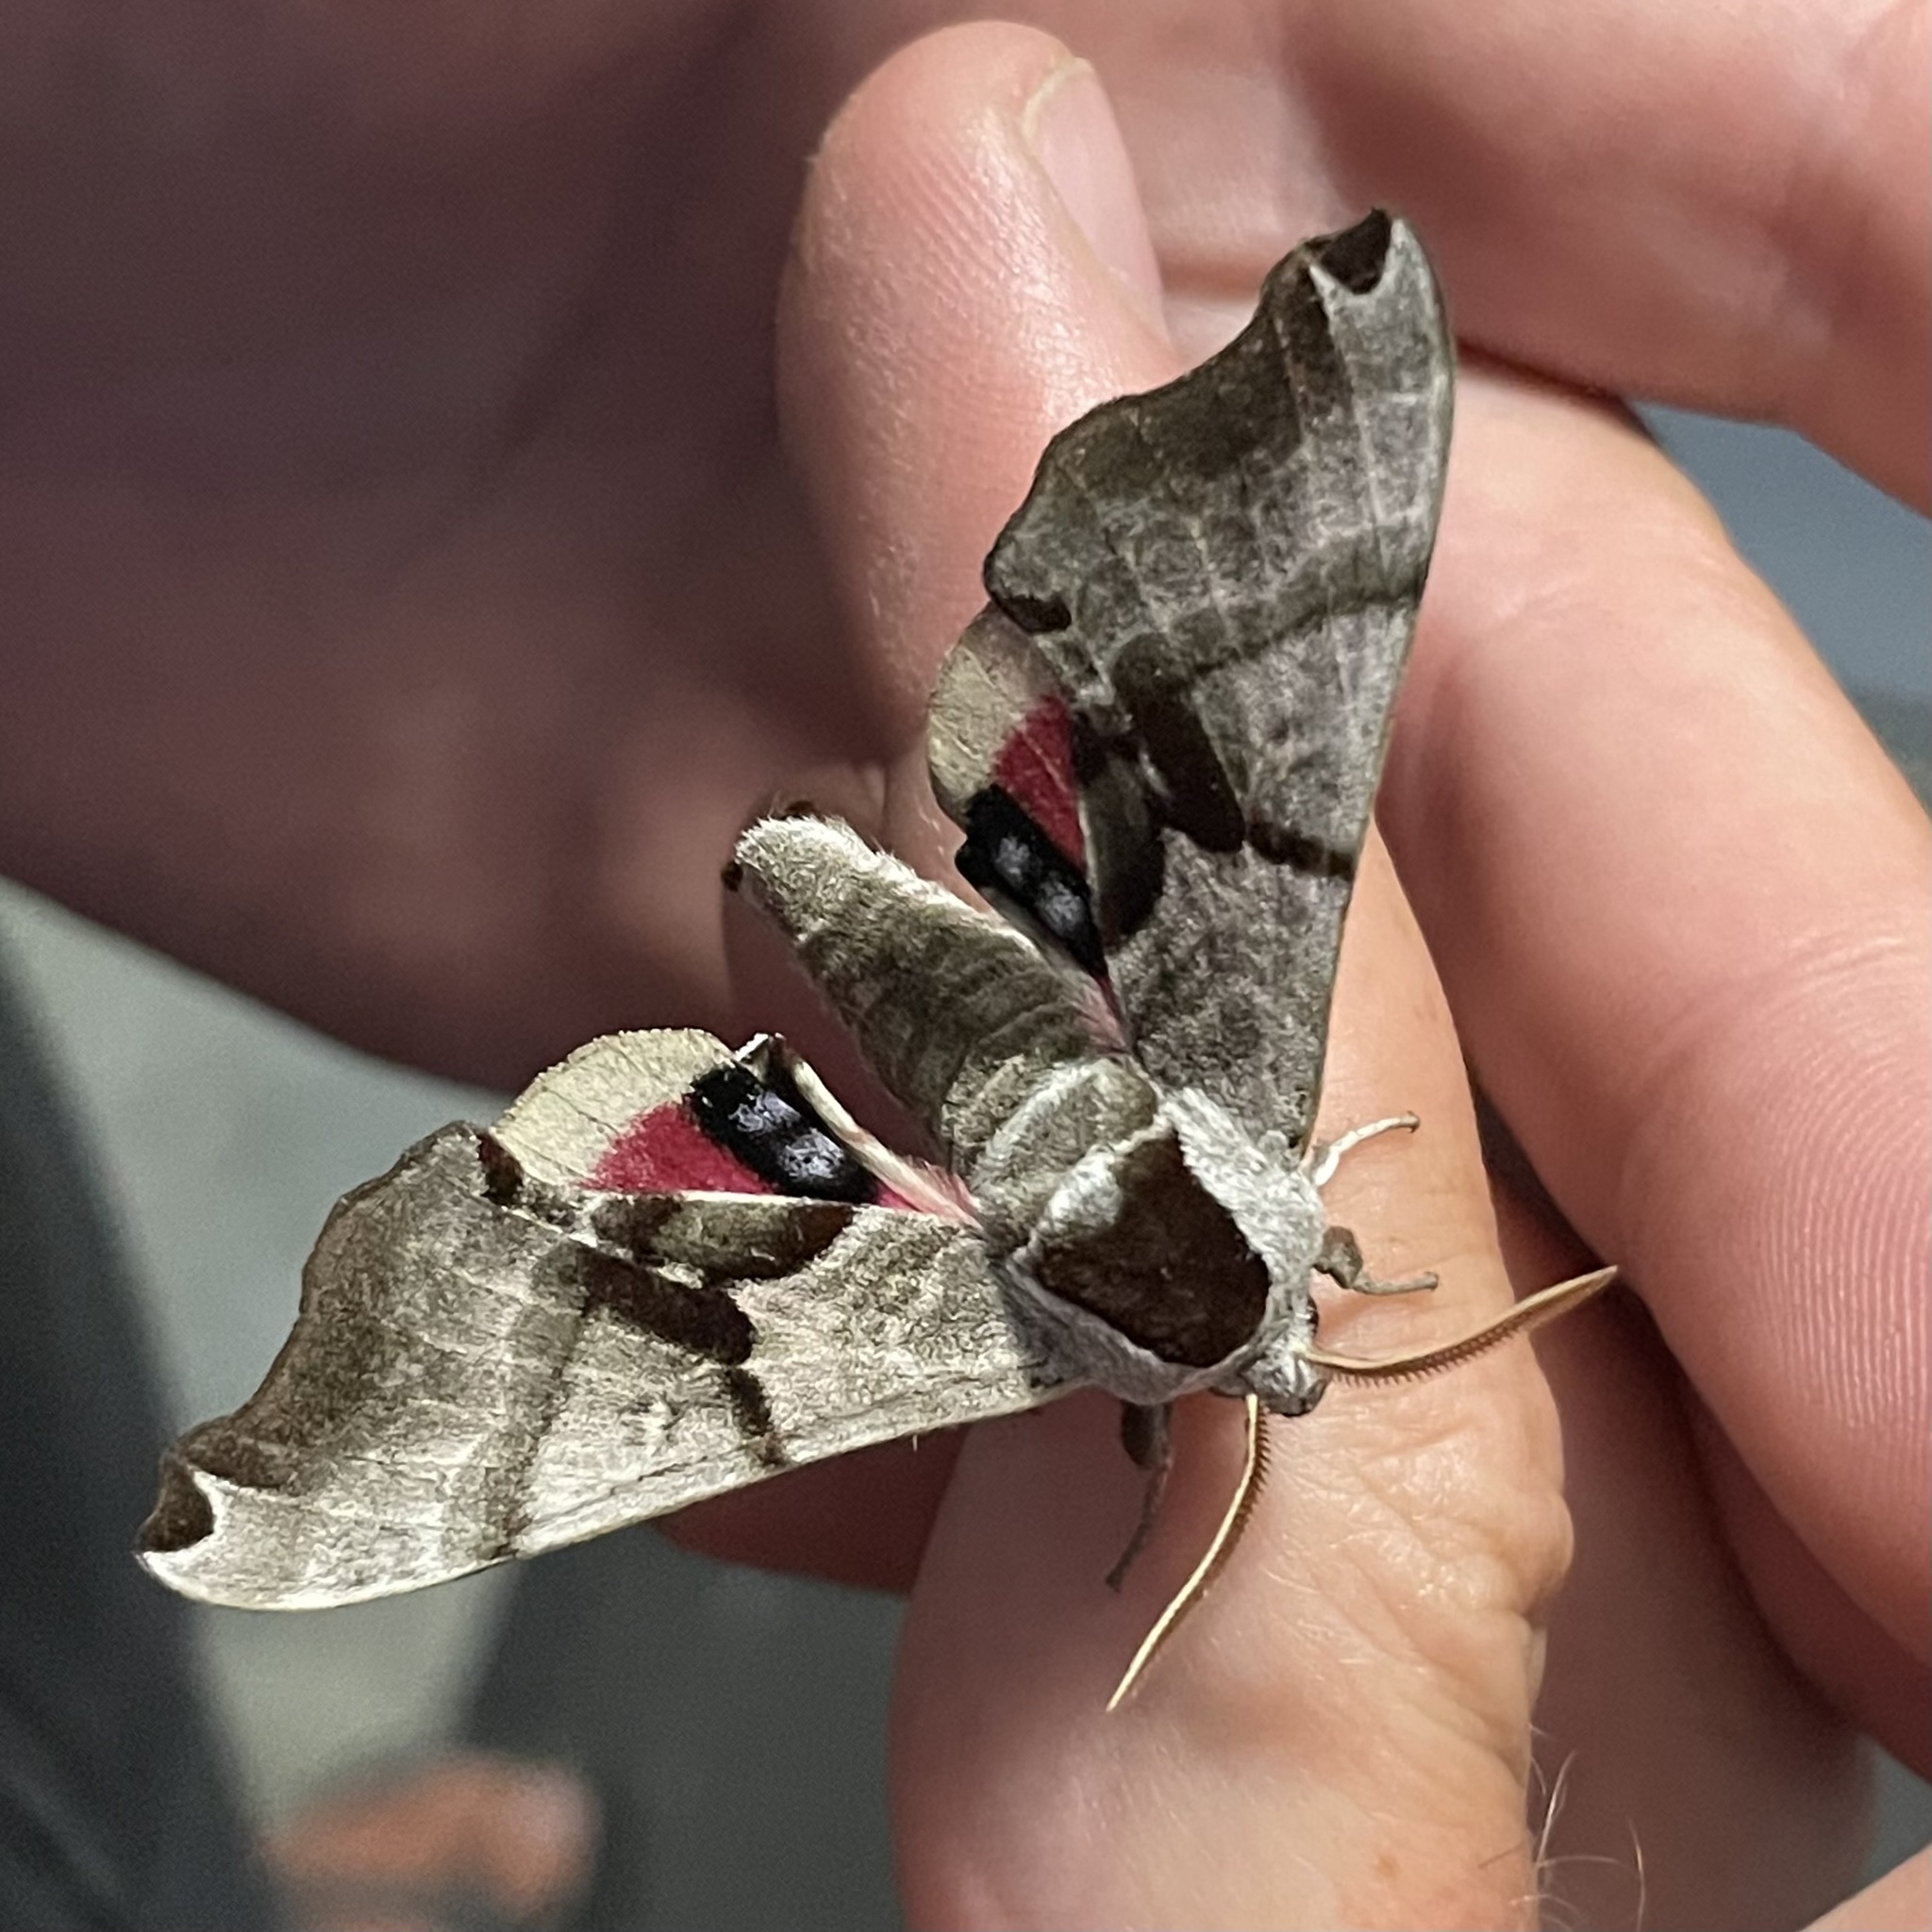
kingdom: Animalia
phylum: Arthropoda
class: Insecta
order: Lepidoptera
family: Sphingidae
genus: Smerinthus
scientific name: Smerinthus jamaicensis
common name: Twin spotted sphinx
